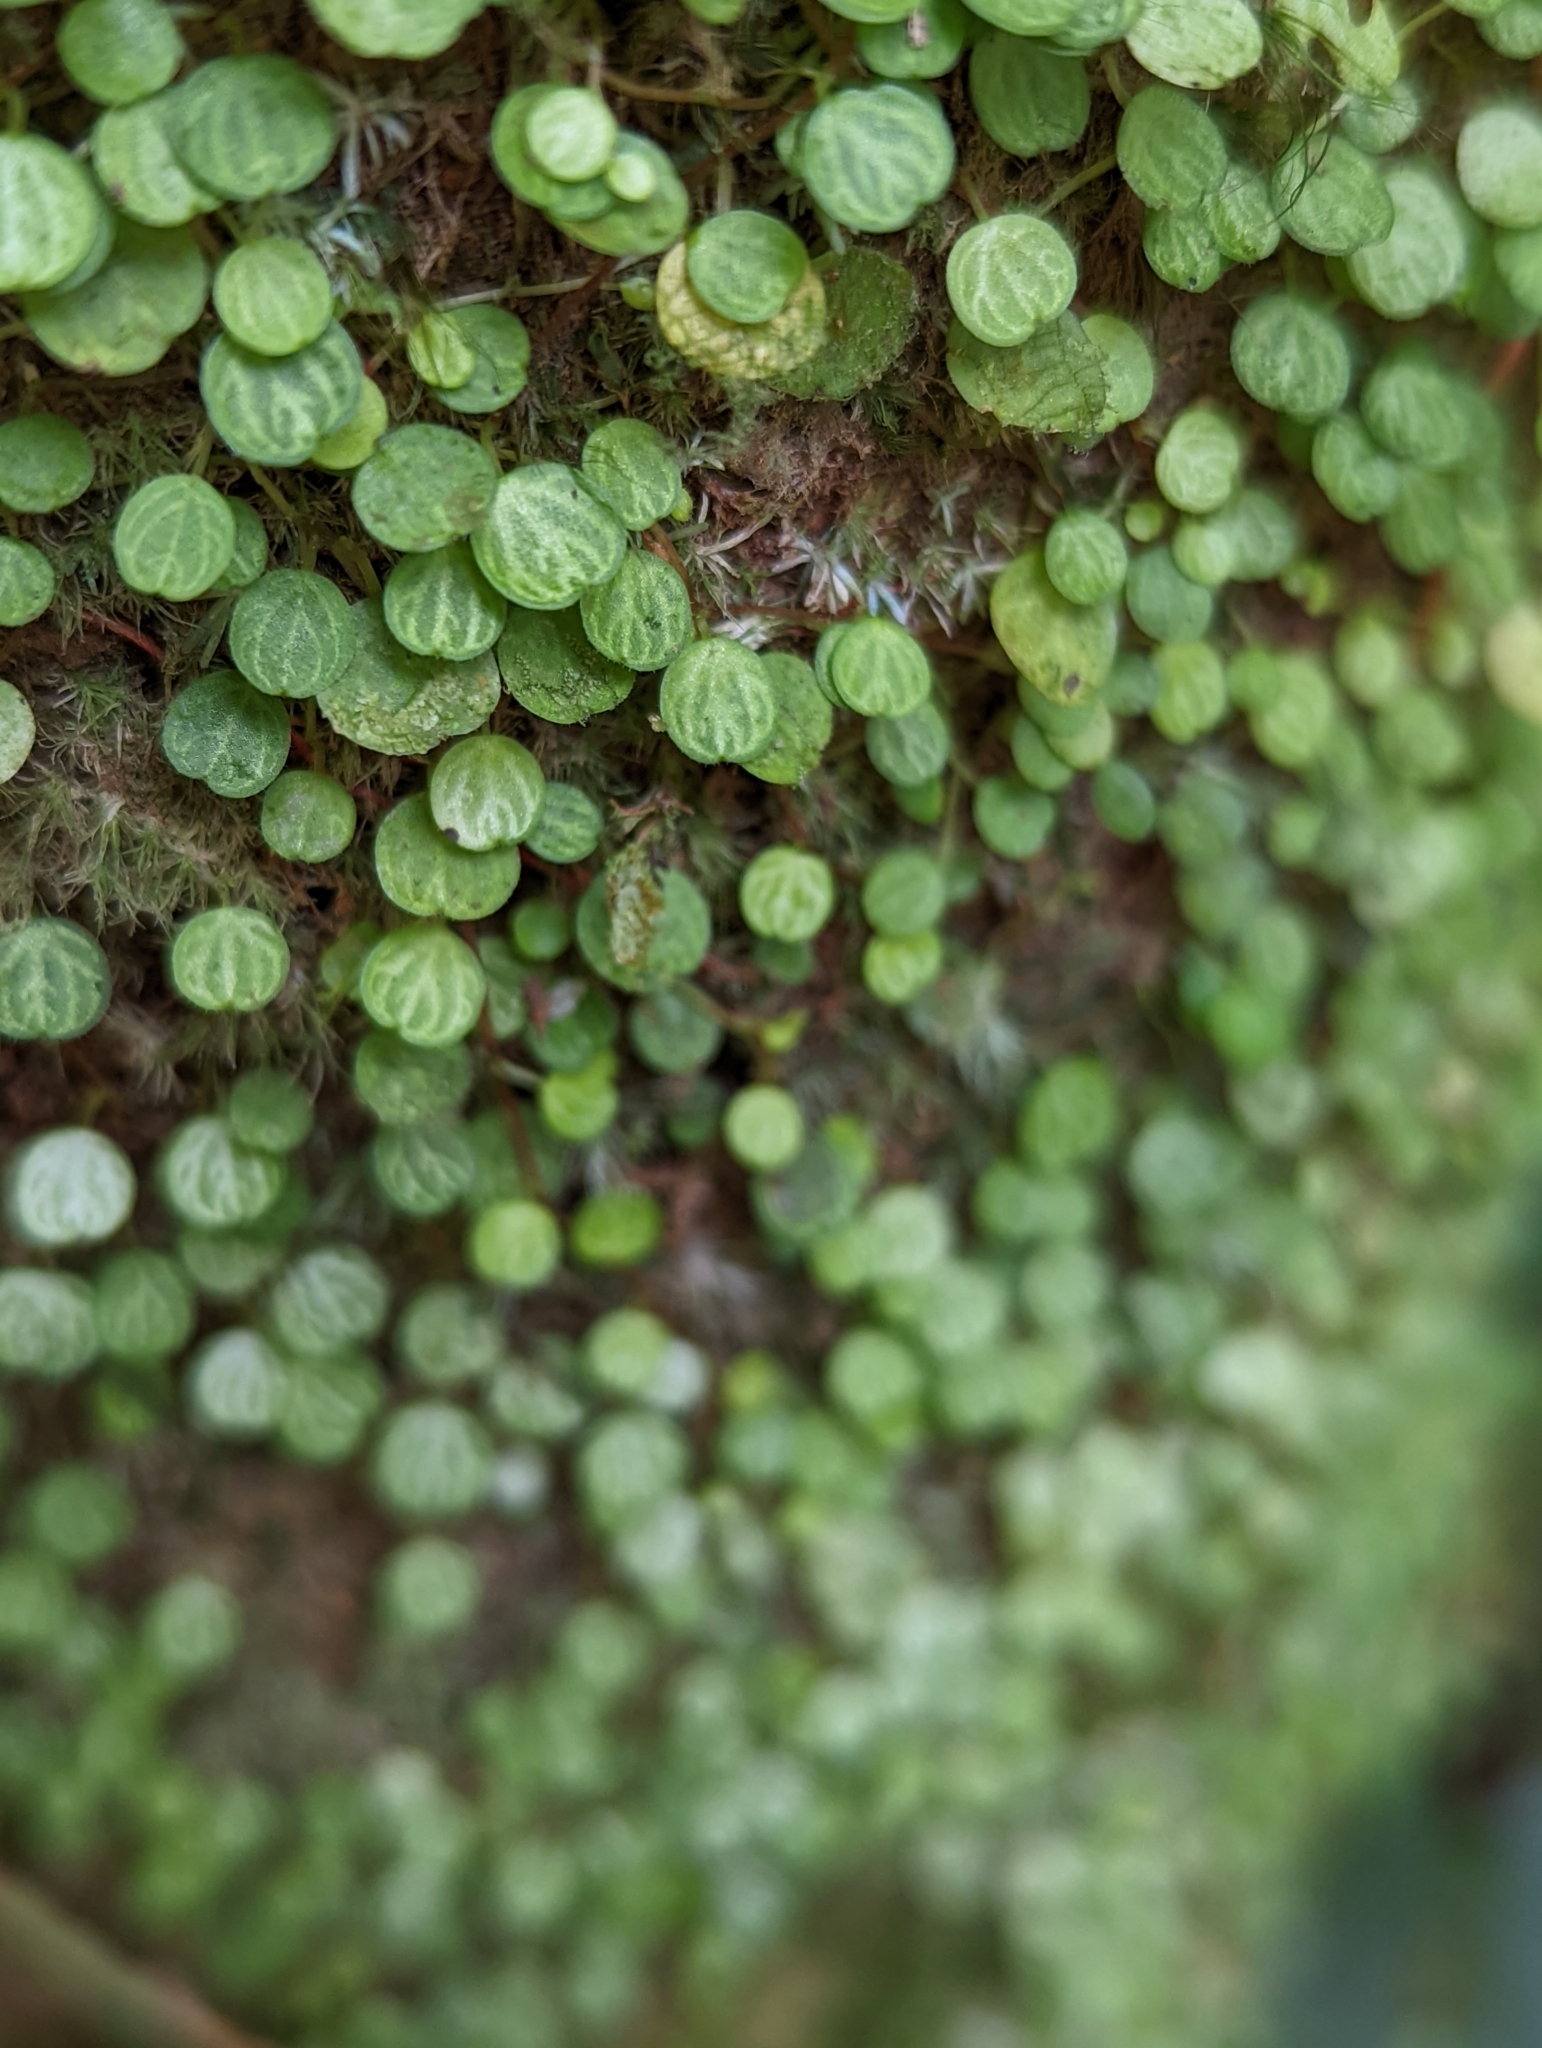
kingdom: Plantae
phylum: Tracheophyta
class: Magnoliopsida
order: Piperales
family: Piperaceae
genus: Peperomia
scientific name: Peperomia emarginella
